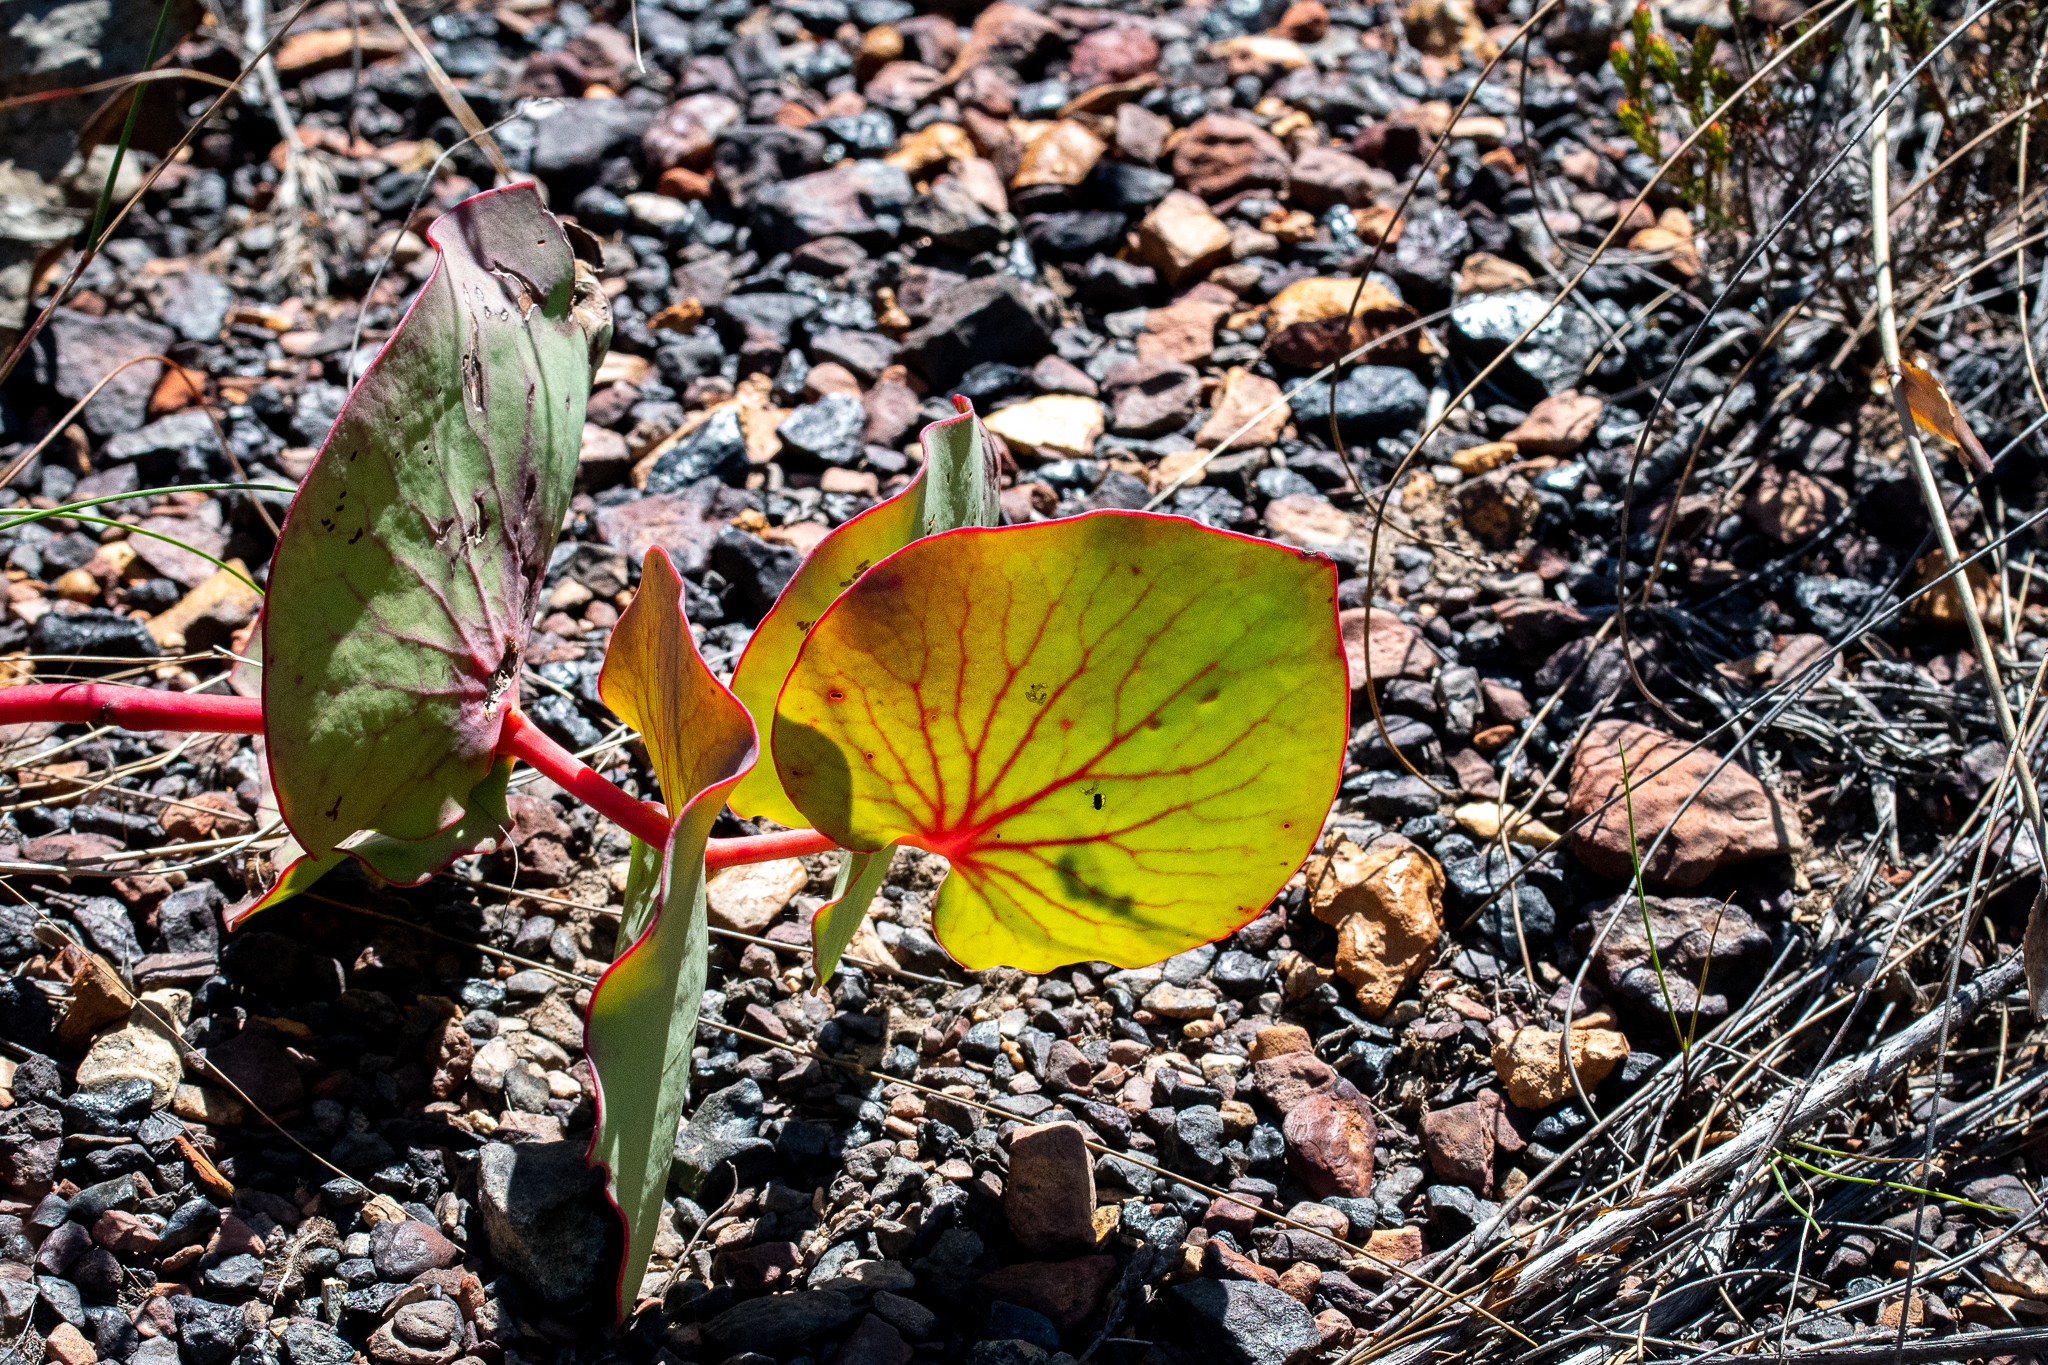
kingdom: Plantae
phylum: Tracheophyta
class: Magnoliopsida
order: Proteales
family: Proteaceae
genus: Protea
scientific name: Protea cordata
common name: Heart-leaf sugarbush
